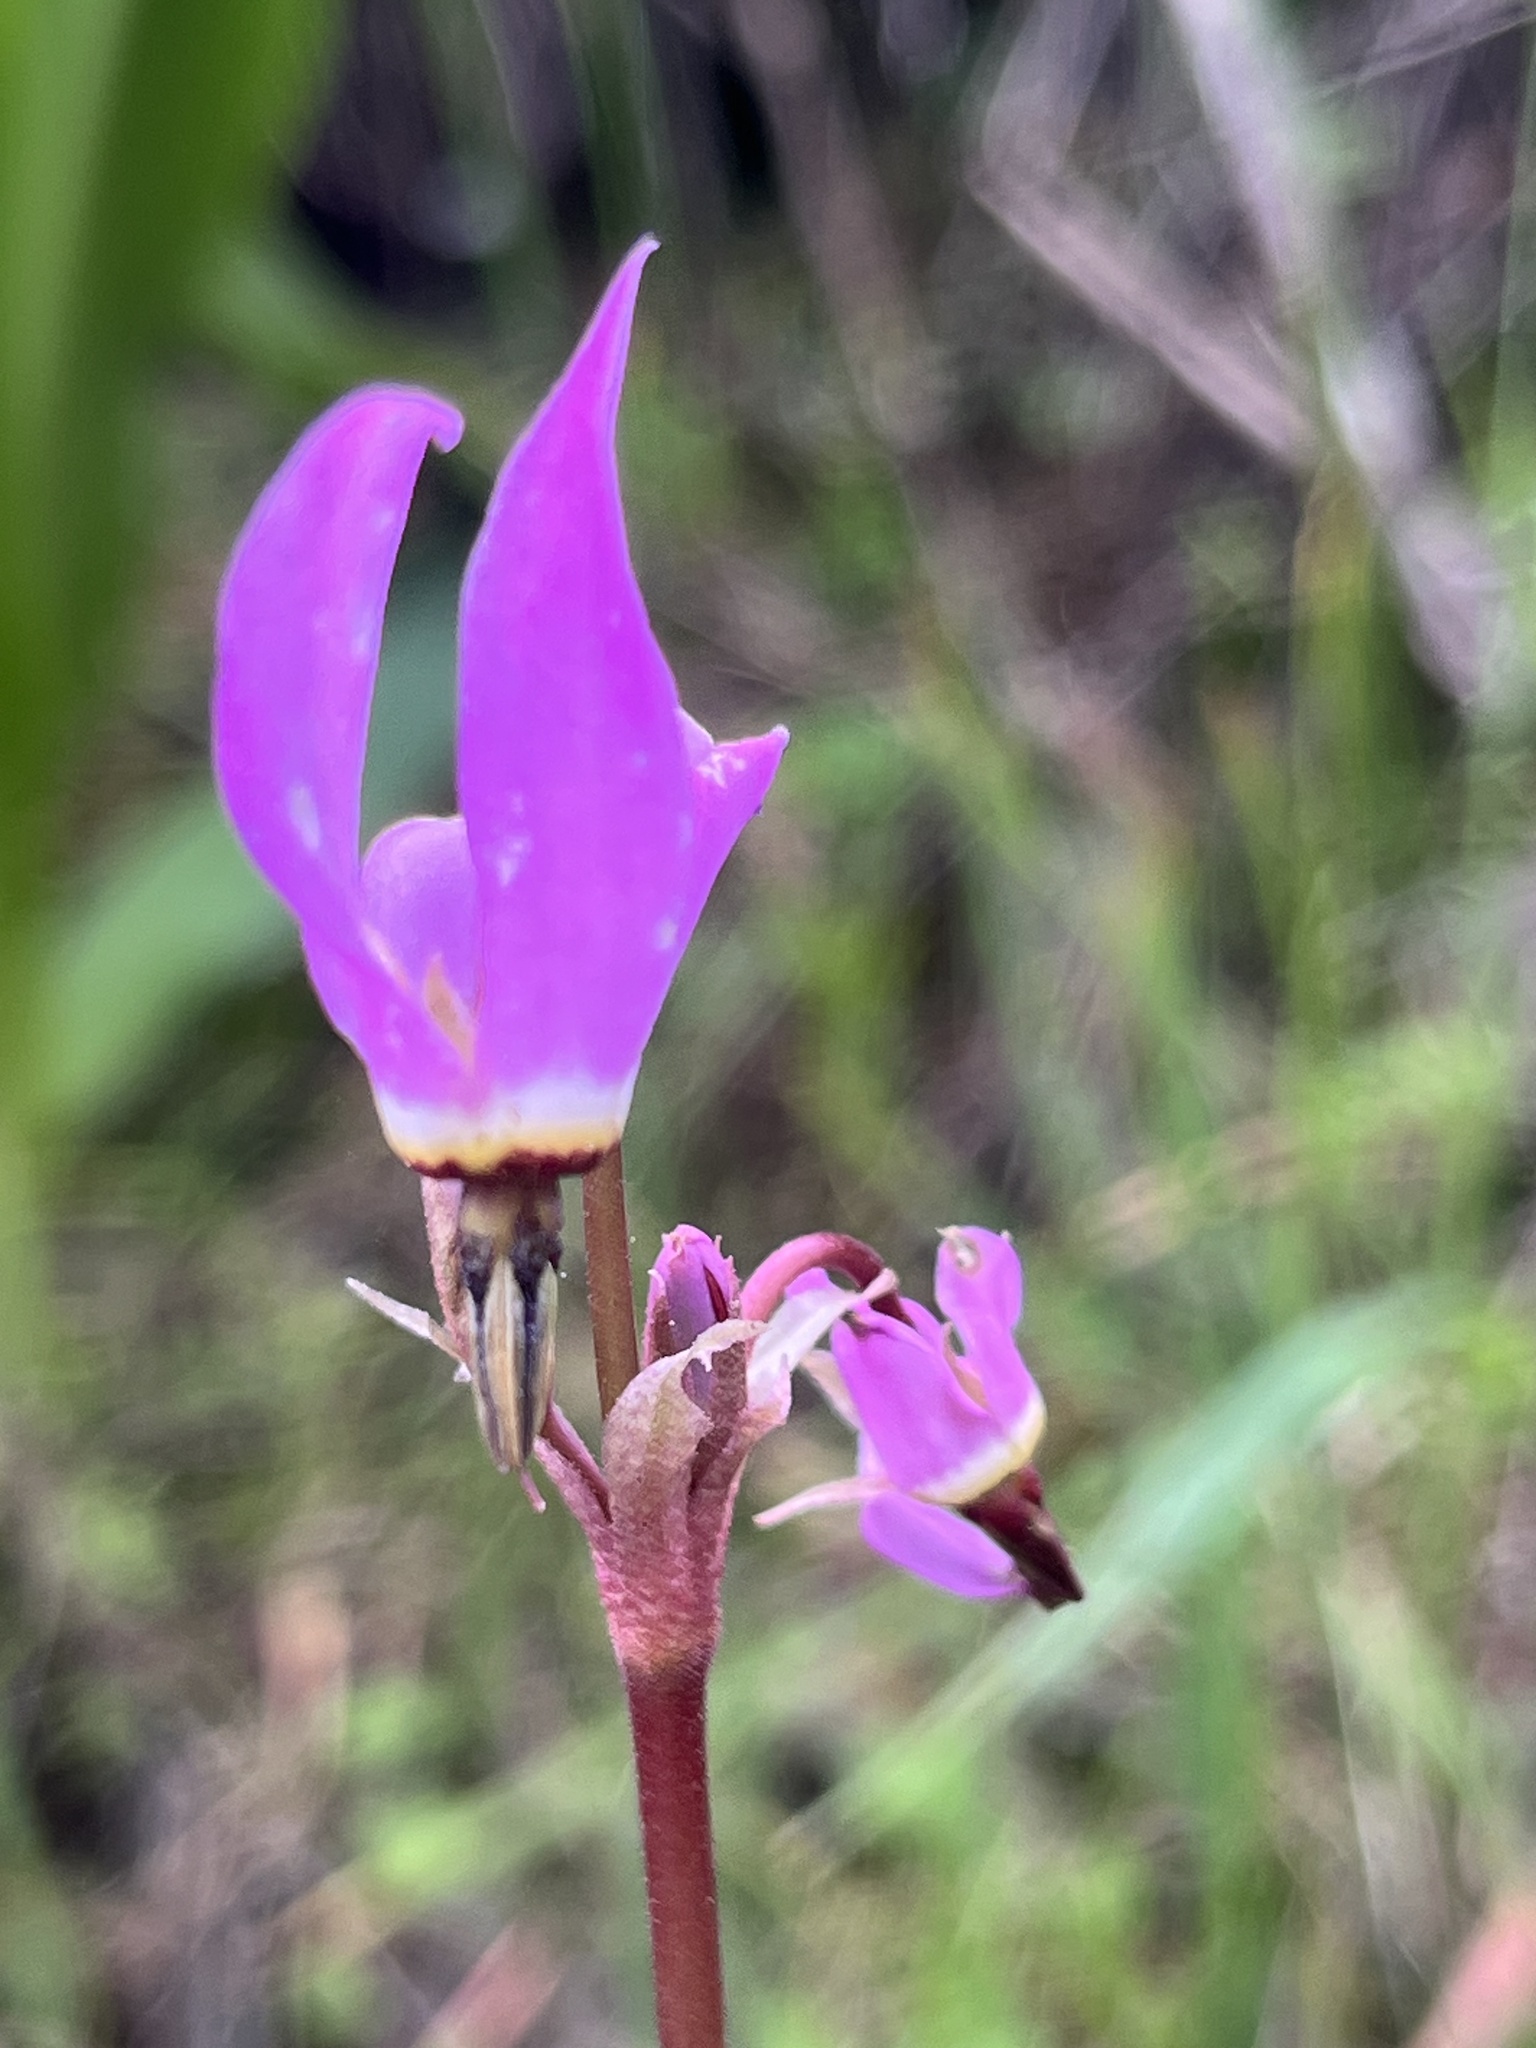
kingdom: Plantae
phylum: Tracheophyta
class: Magnoliopsida
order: Ericales
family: Primulaceae
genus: Dodecatheon
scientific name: Dodecatheon hendersonii
